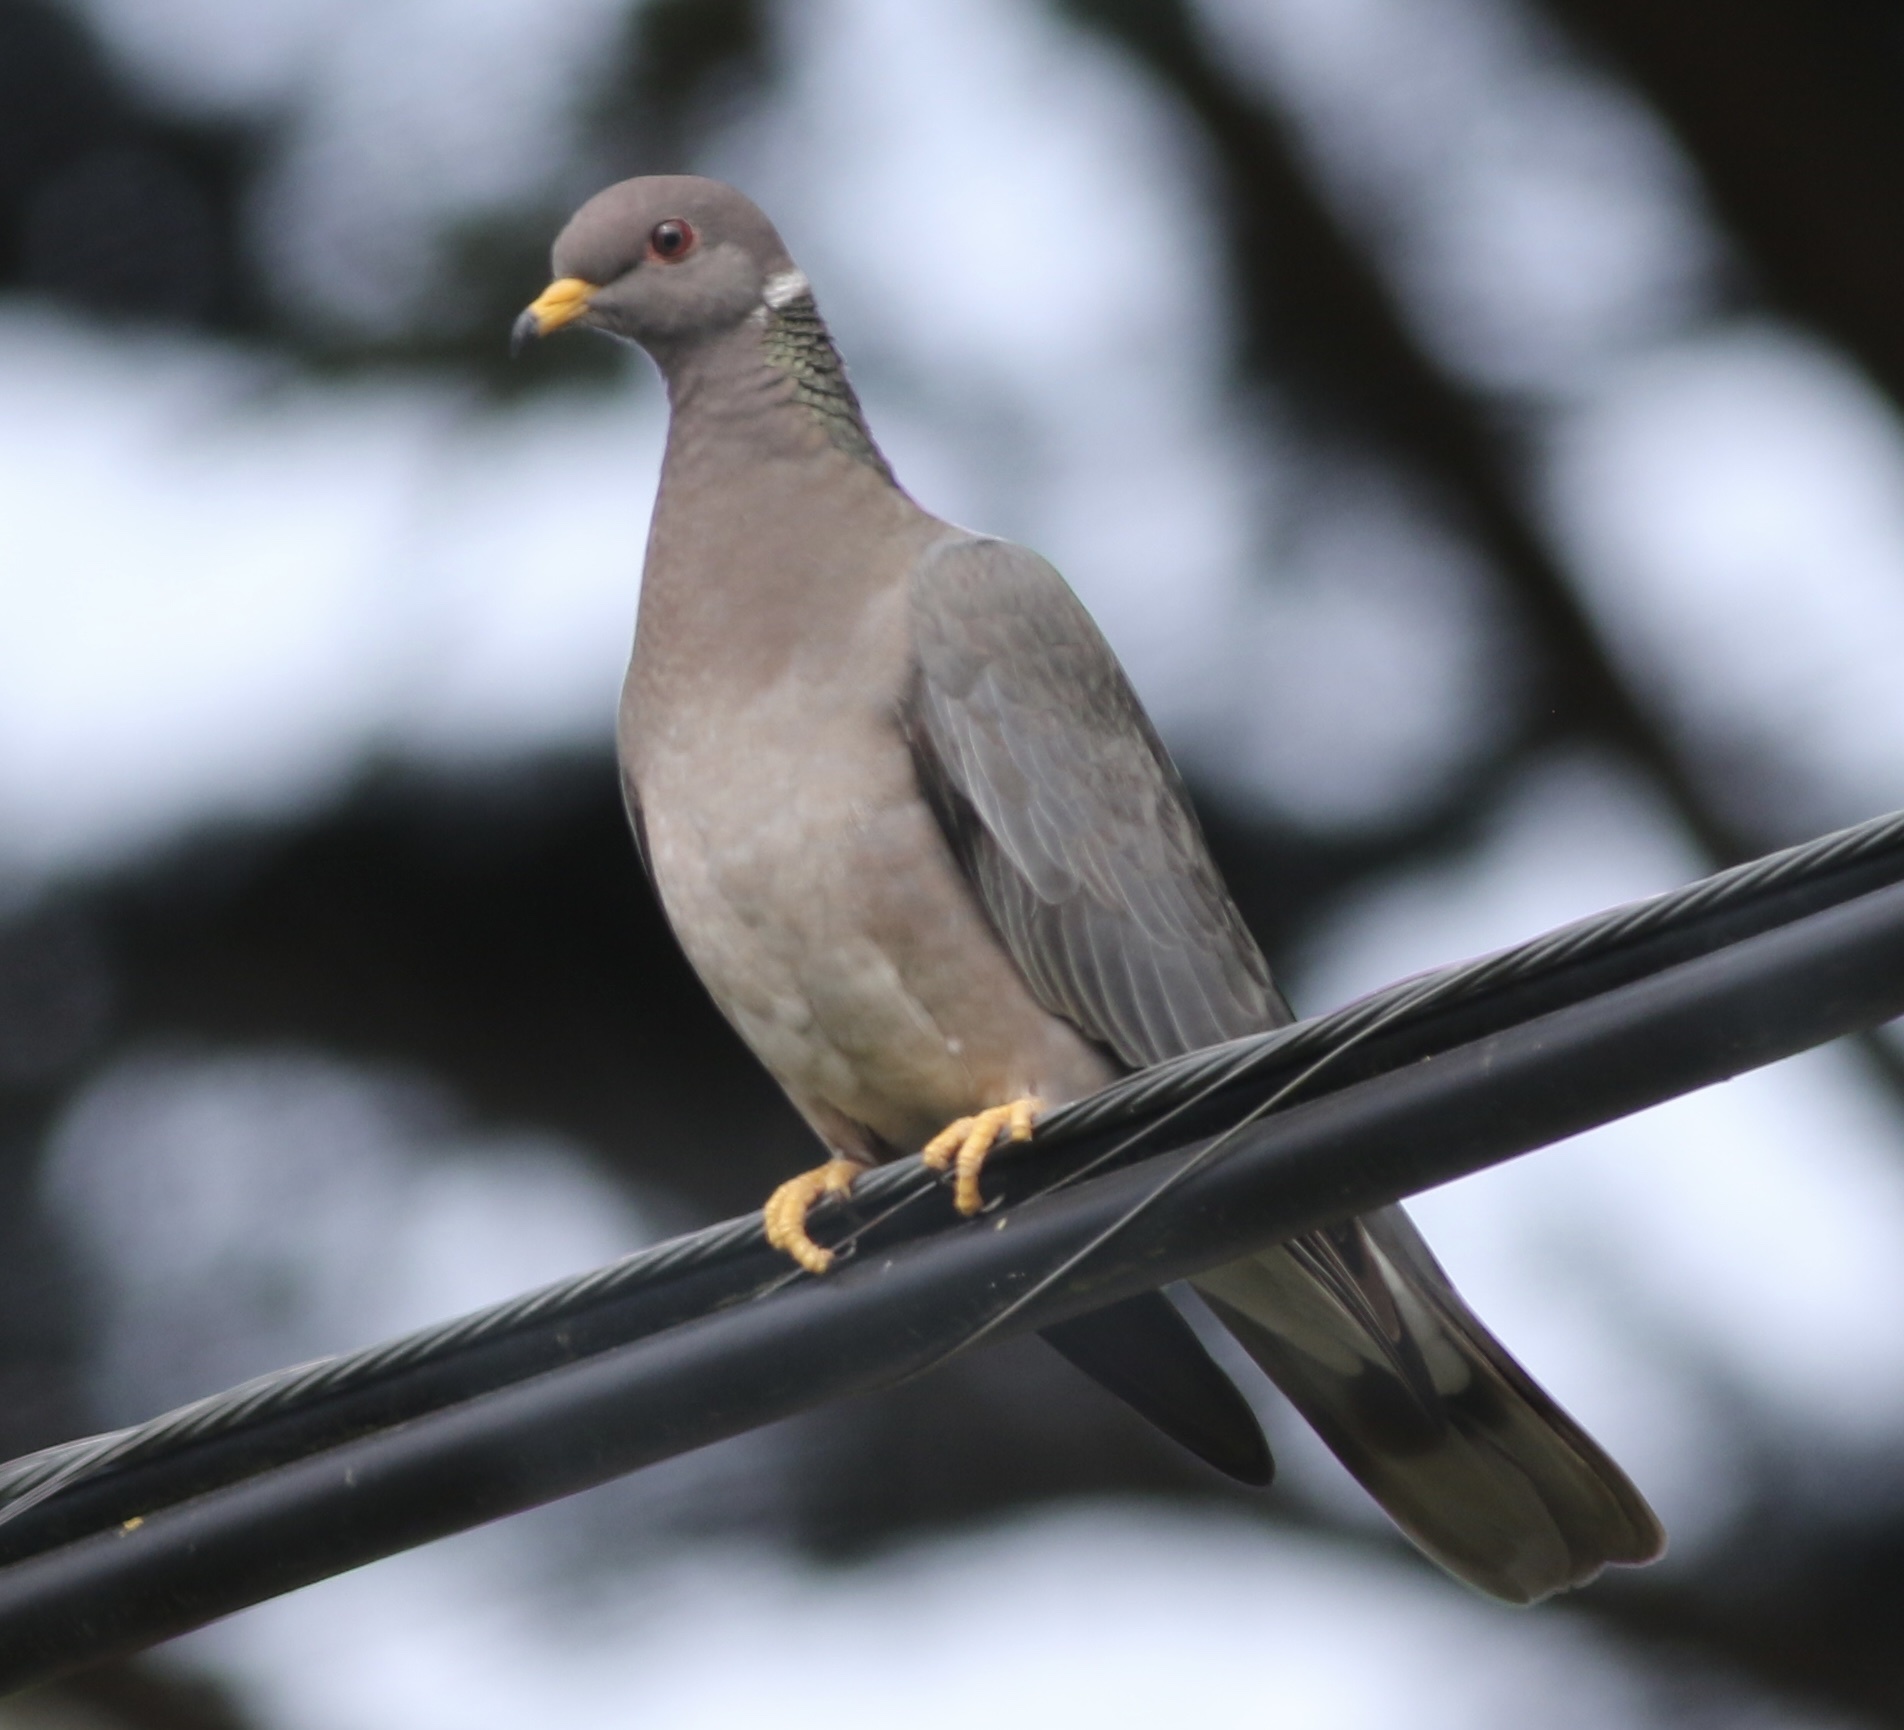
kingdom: Animalia
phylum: Chordata
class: Aves
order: Columbiformes
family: Columbidae
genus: Patagioenas
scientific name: Patagioenas fasciata
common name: Band-tailed pigeon
